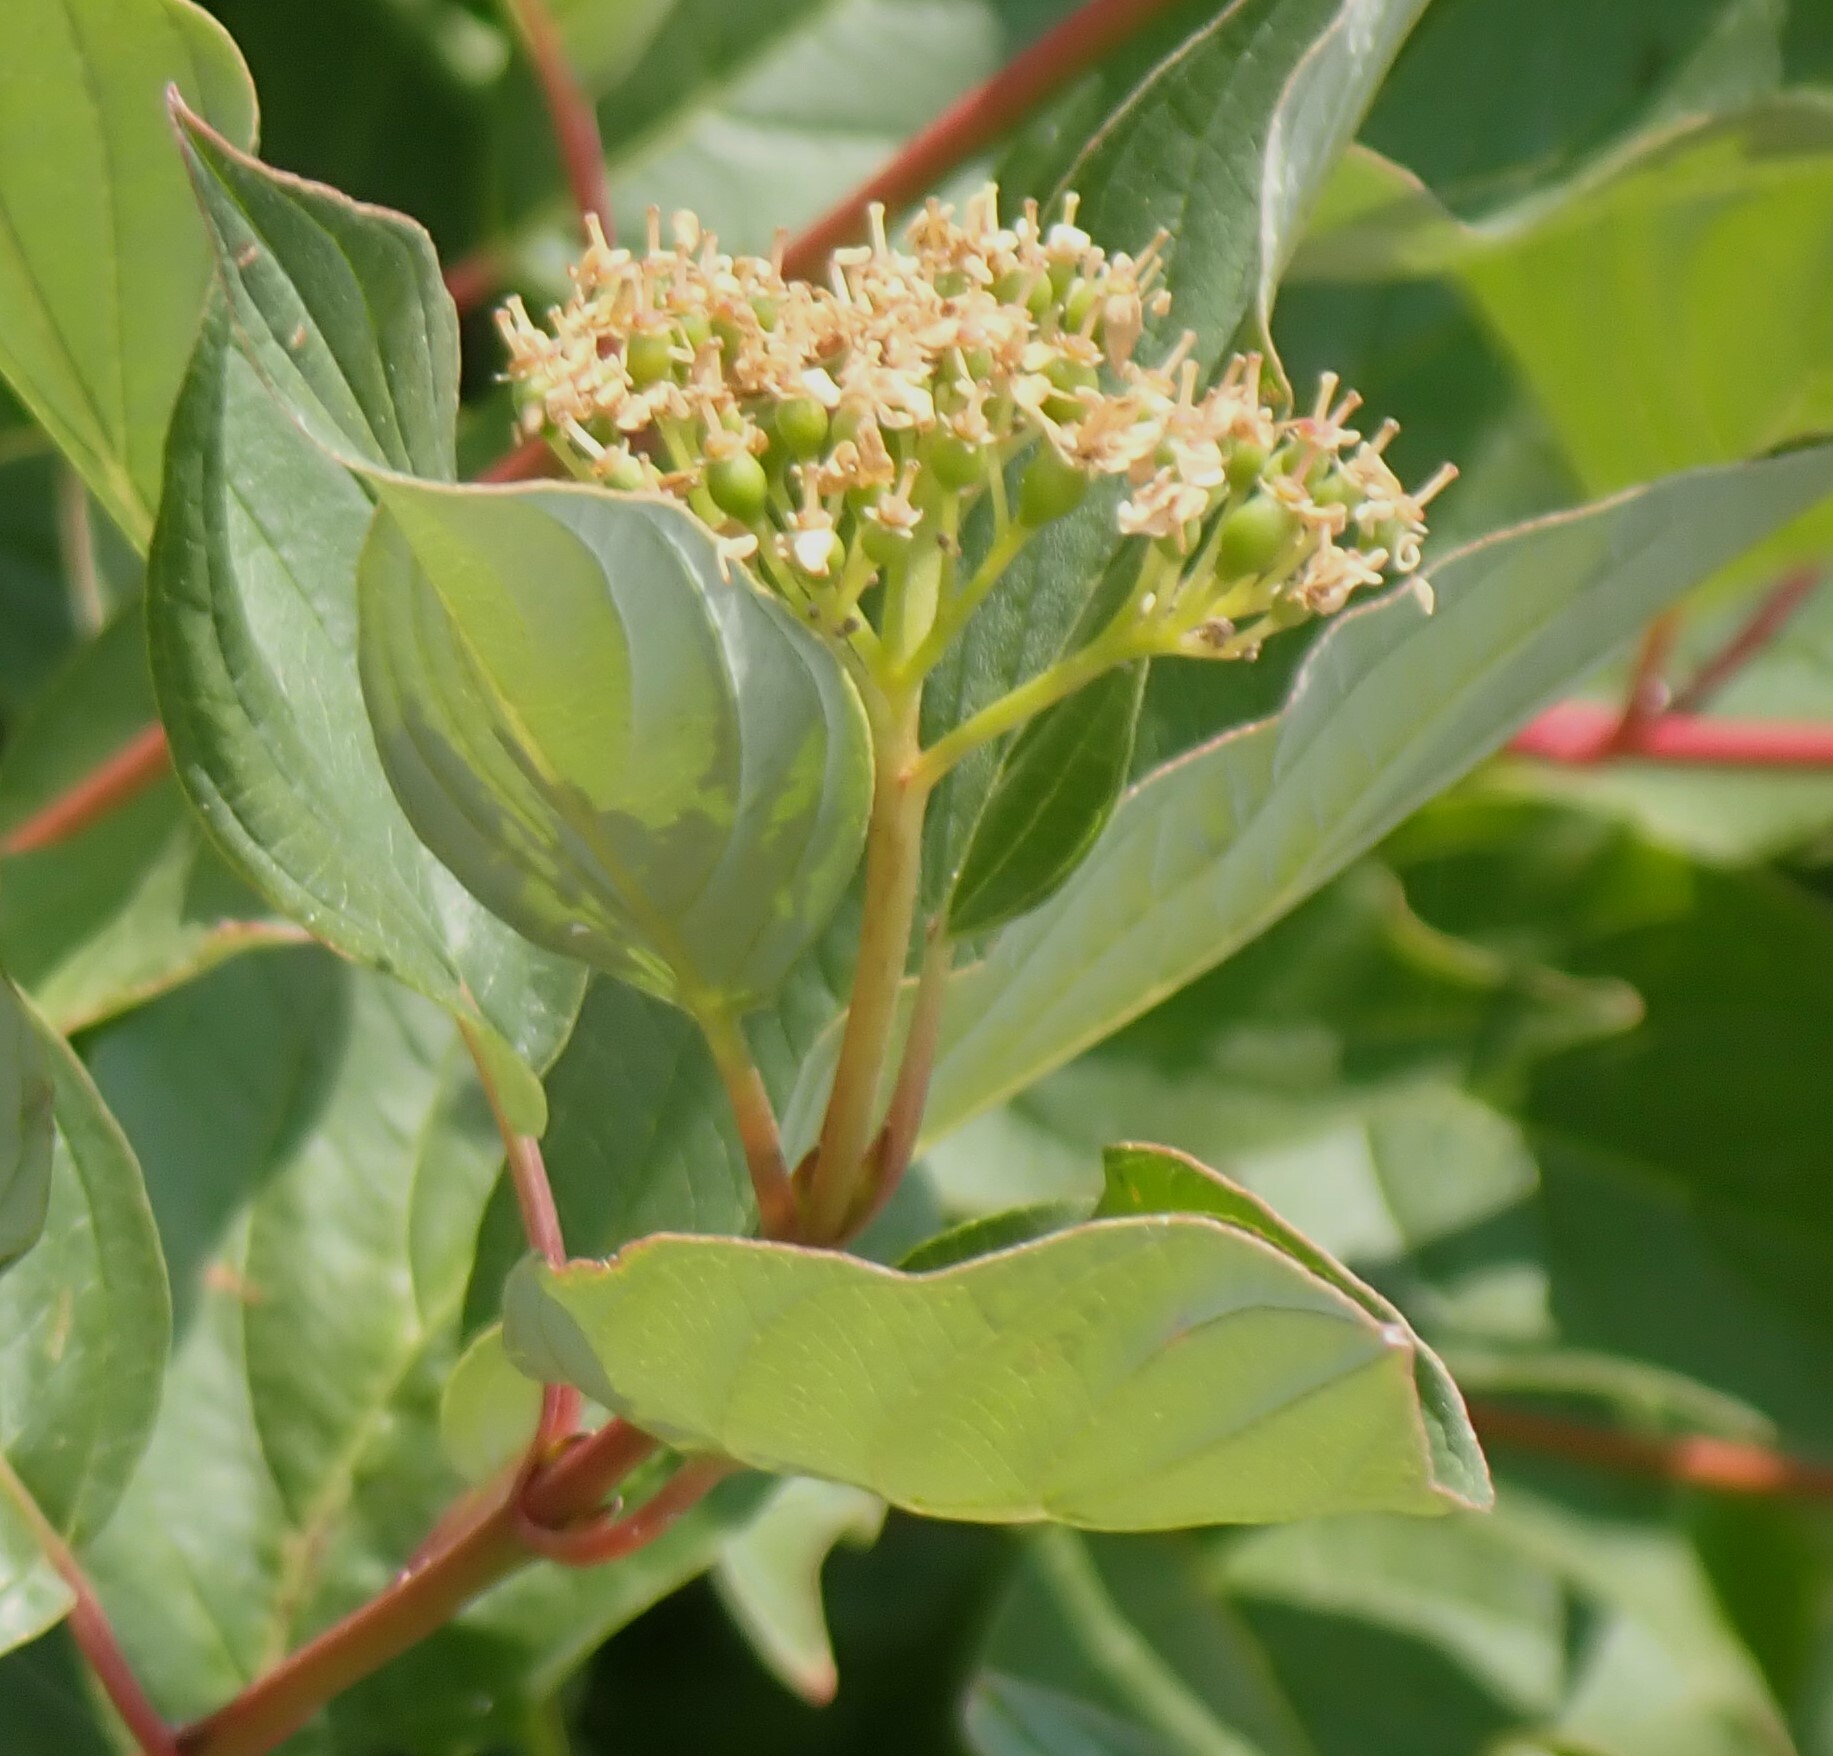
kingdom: Plantae
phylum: Tracheophyta
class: Magnoliopsida
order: Cornales
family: Cornaceae
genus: Cornus
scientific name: Cornus sericea
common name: Red-osier dogwood
